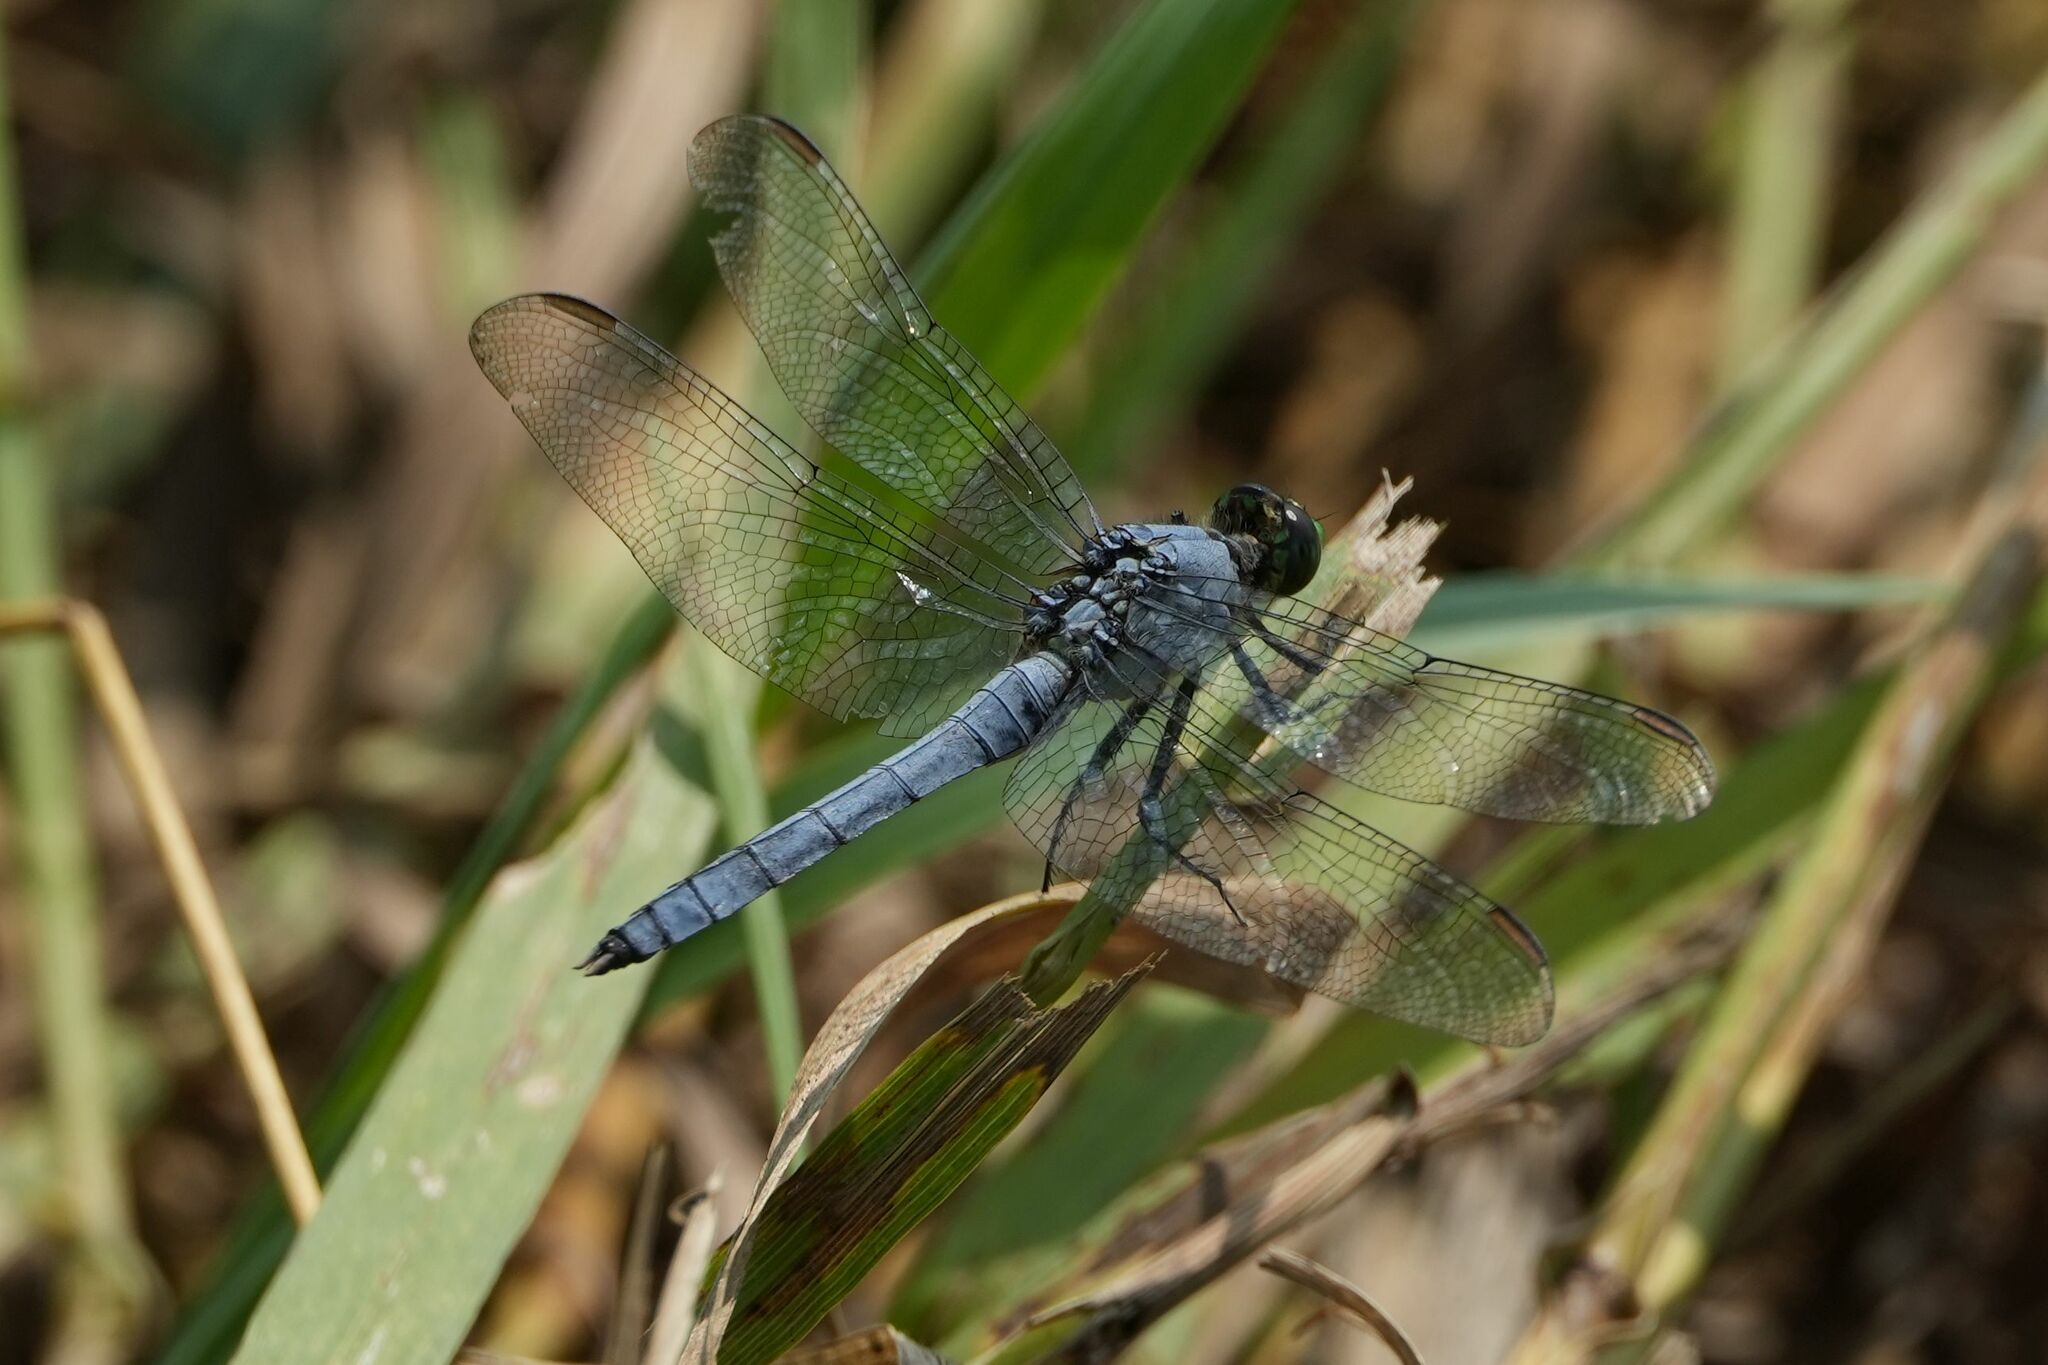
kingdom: Animalia
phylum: Arthropoda
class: Insecta
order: Odonata
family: Libellulidae
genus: Erythemis
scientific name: Erythemis simplicicollis
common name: Eastern pondhawk
